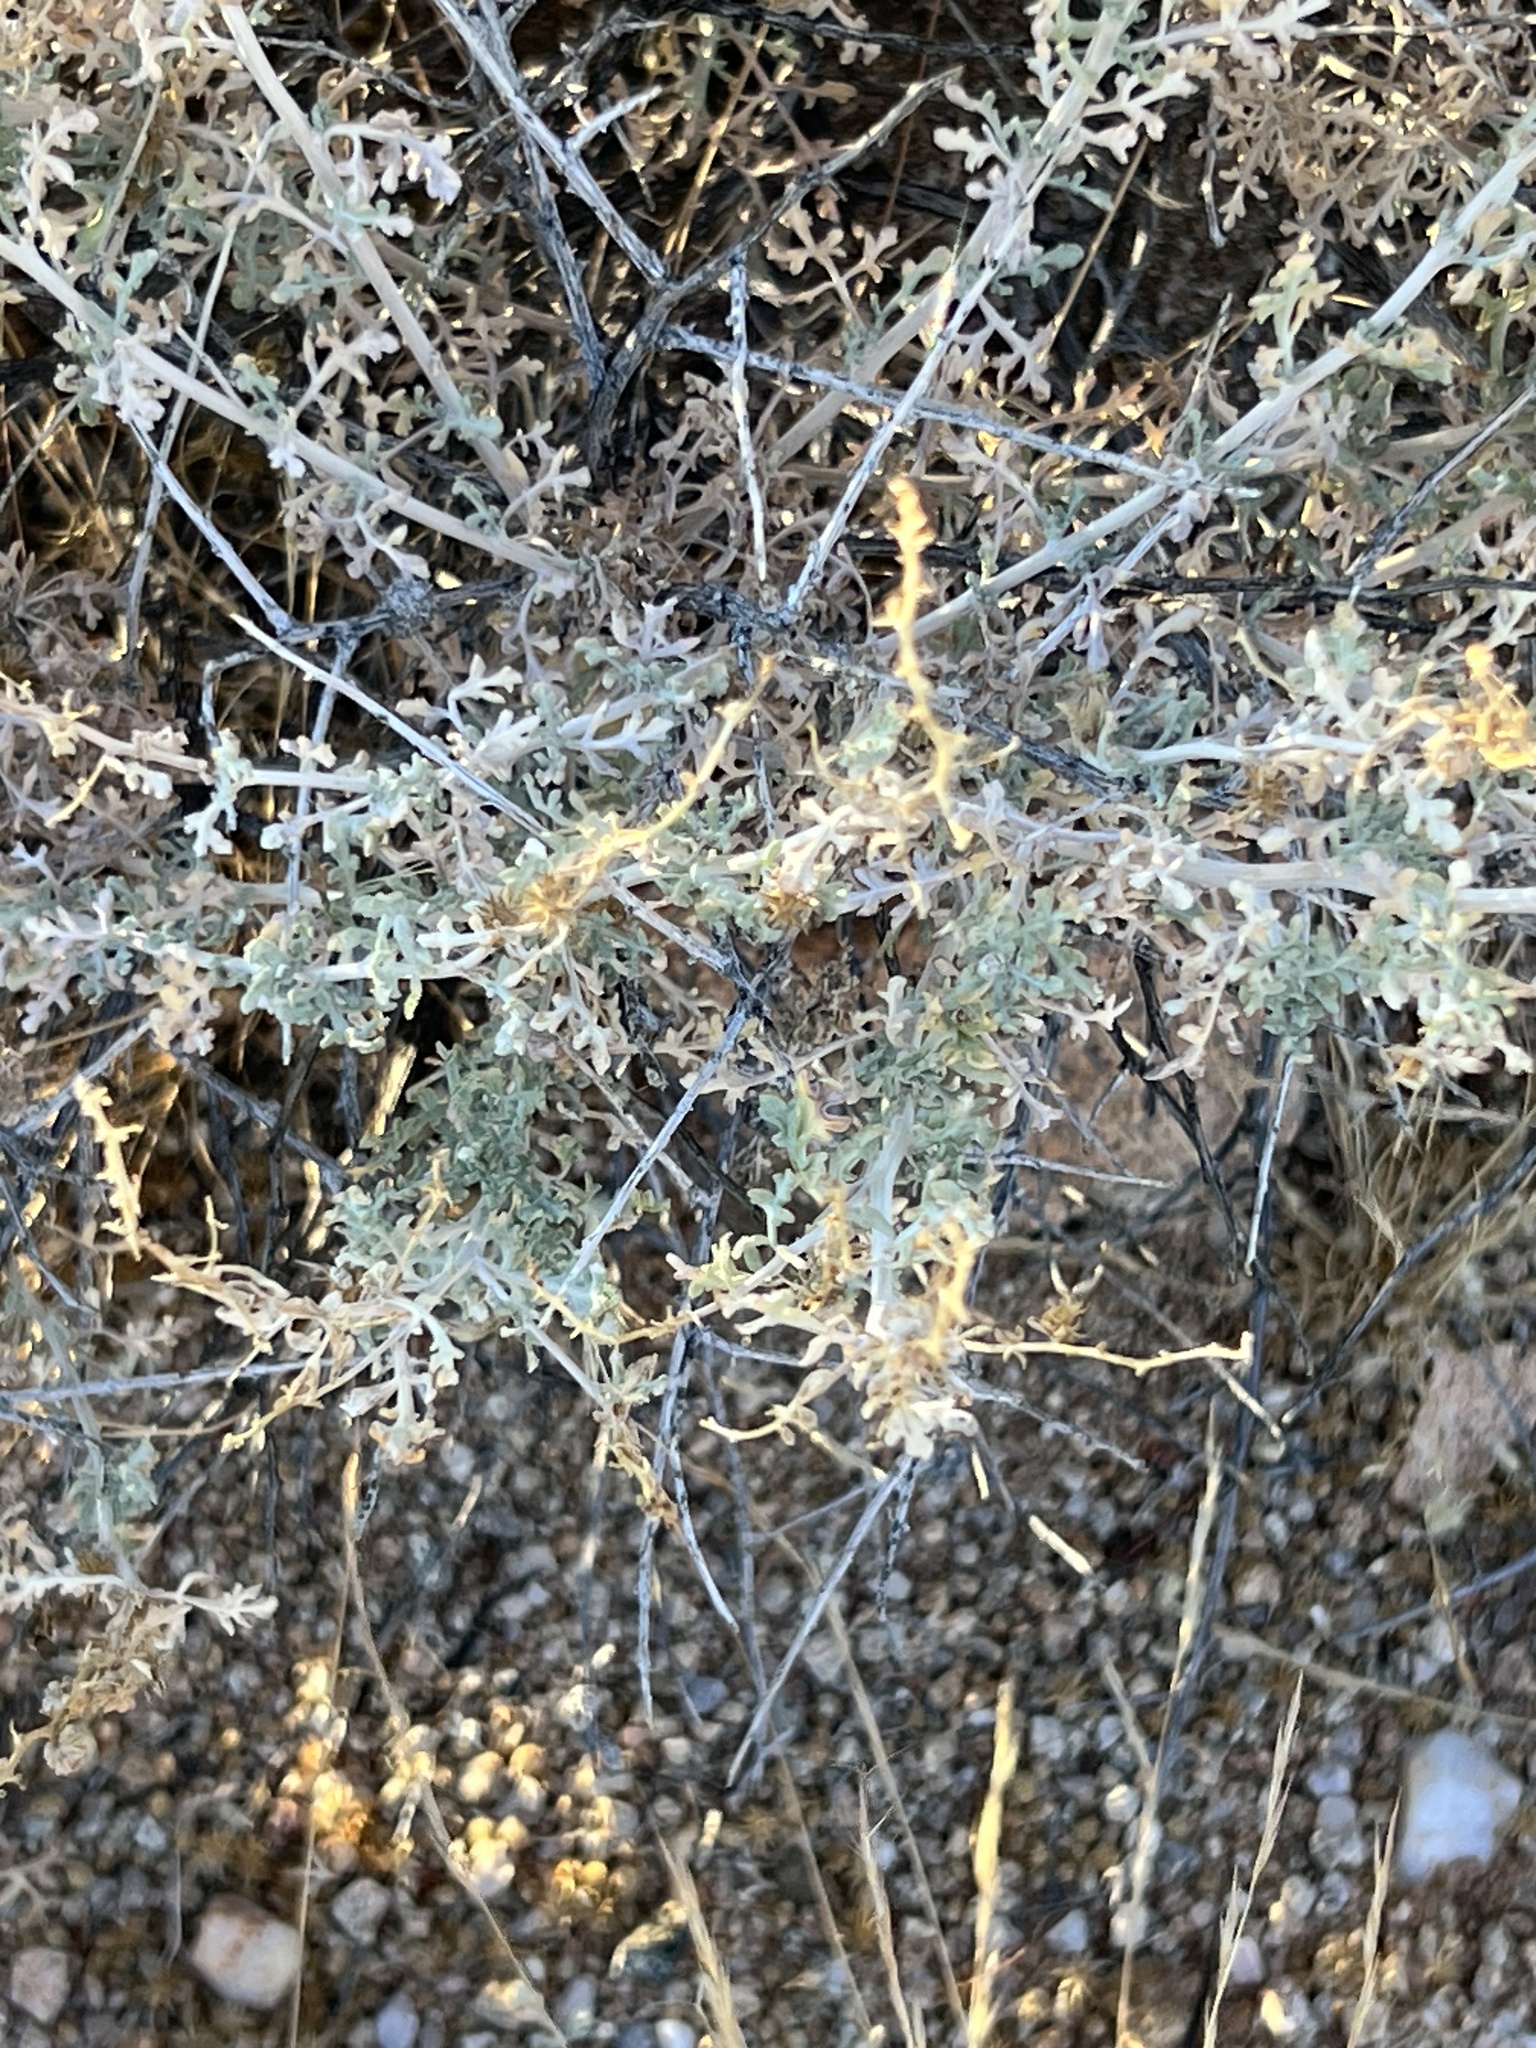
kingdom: Plantae
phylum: Tracheophyta
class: Magnoliopsida
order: Asterales
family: Asteraceae
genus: Ambrosia
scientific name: Ambrosia dumosa
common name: Bur-sage
